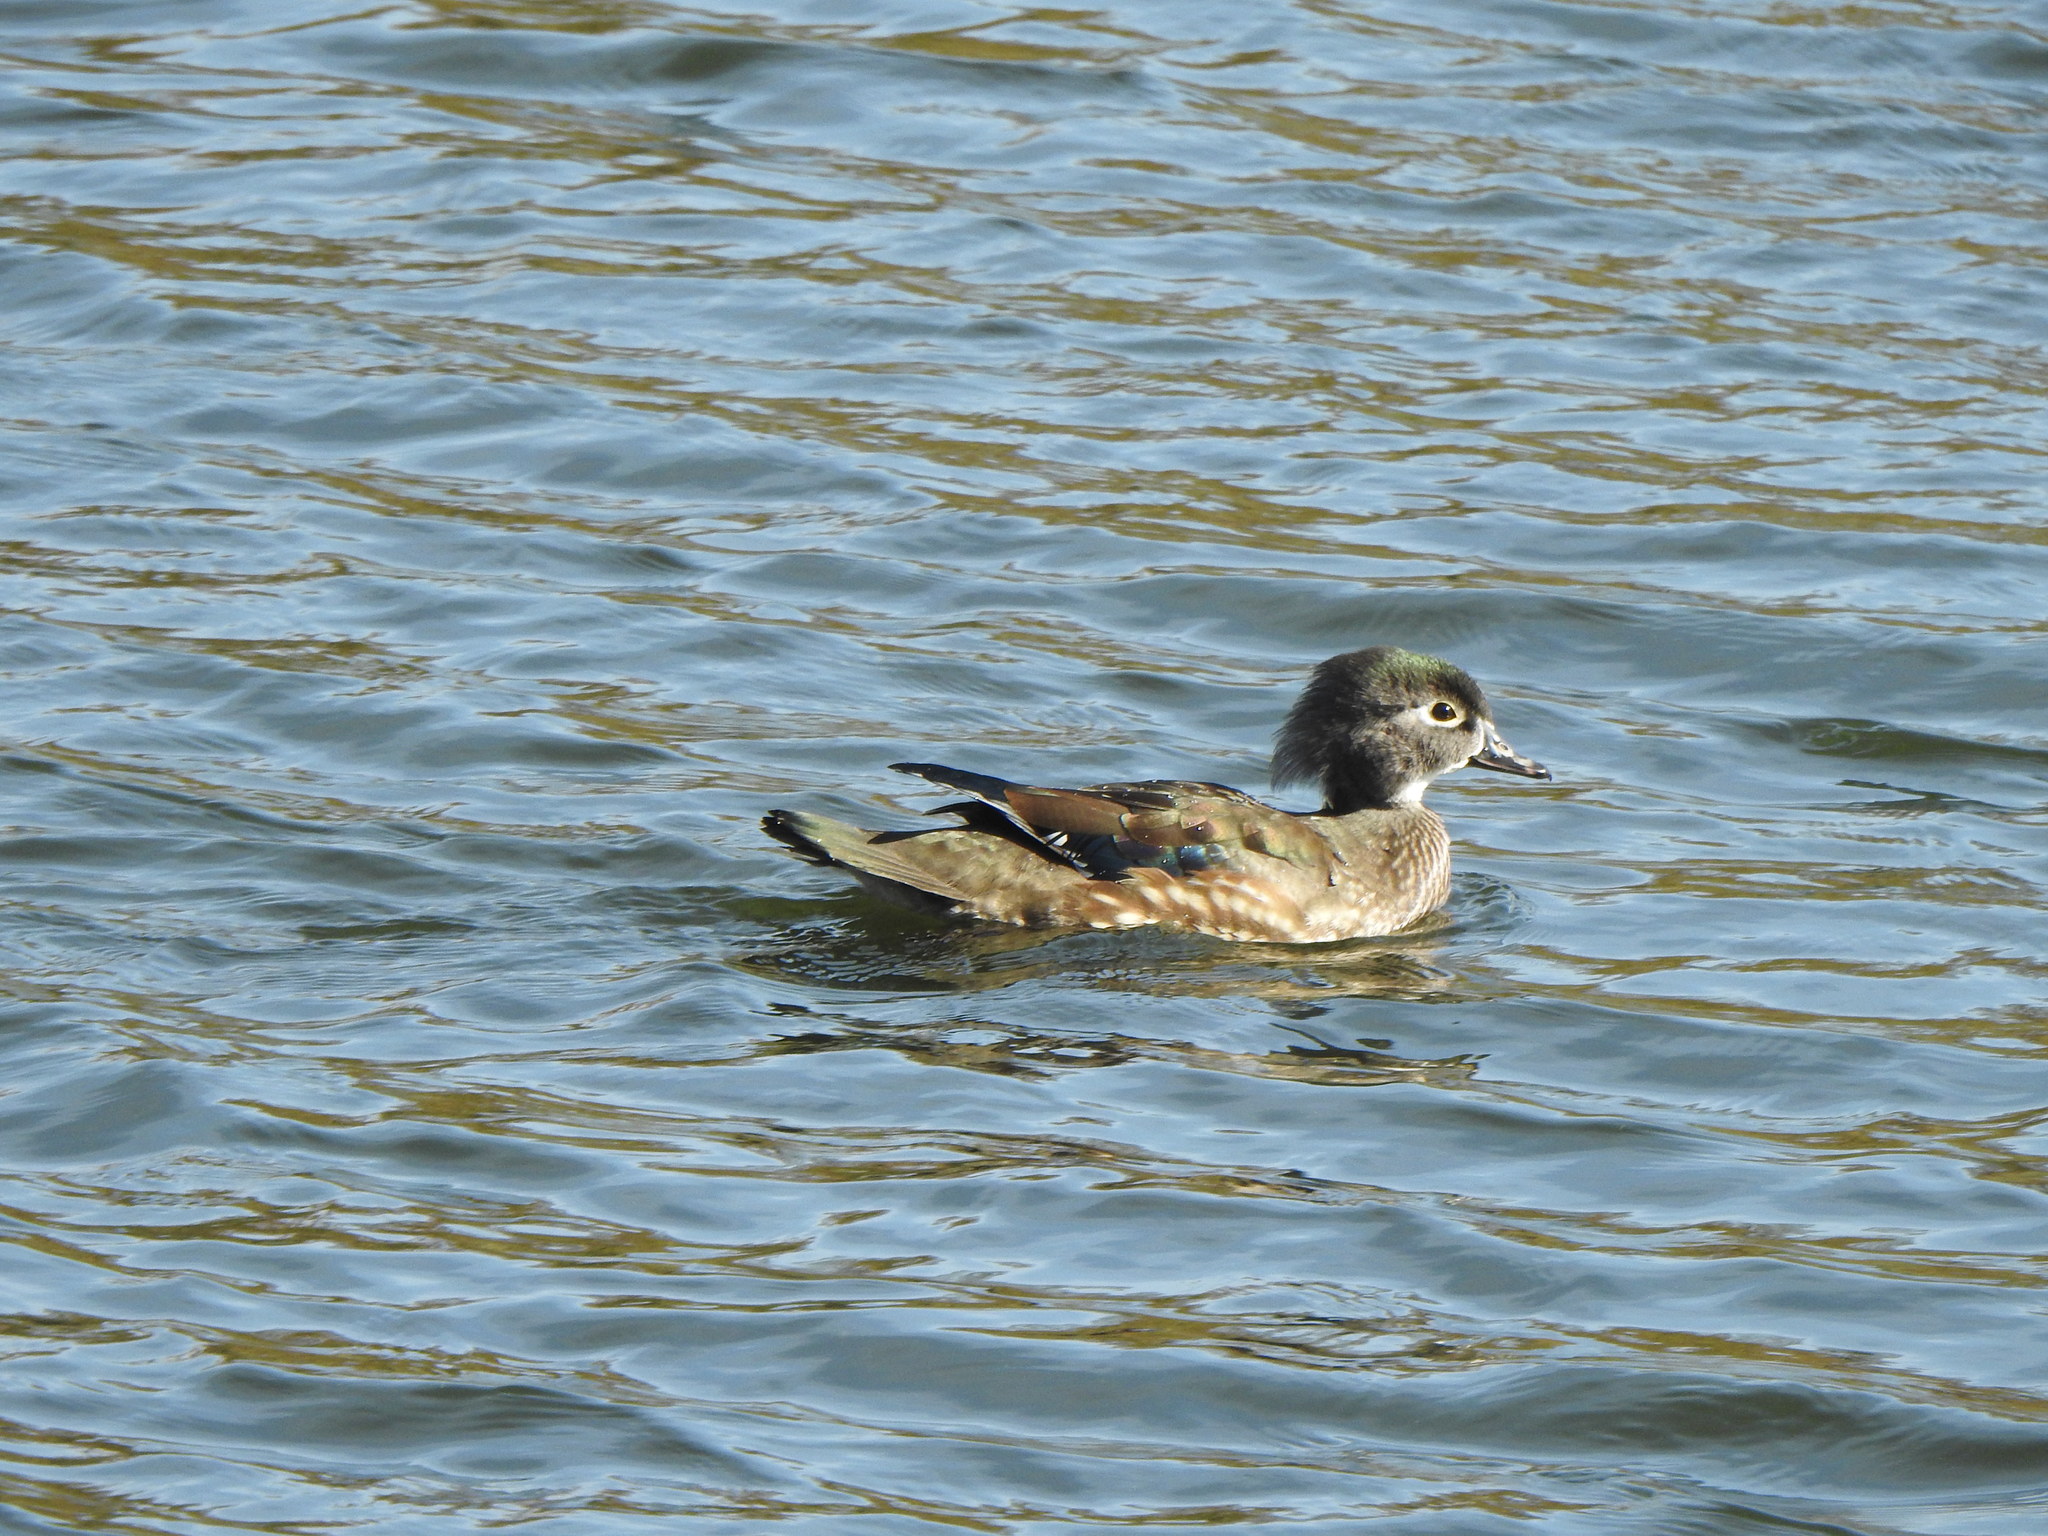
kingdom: Animalia
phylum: Chordata
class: Aves
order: Anseriformes
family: Anatidae
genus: Aix
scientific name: Aix sponsa
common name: Wood duck
